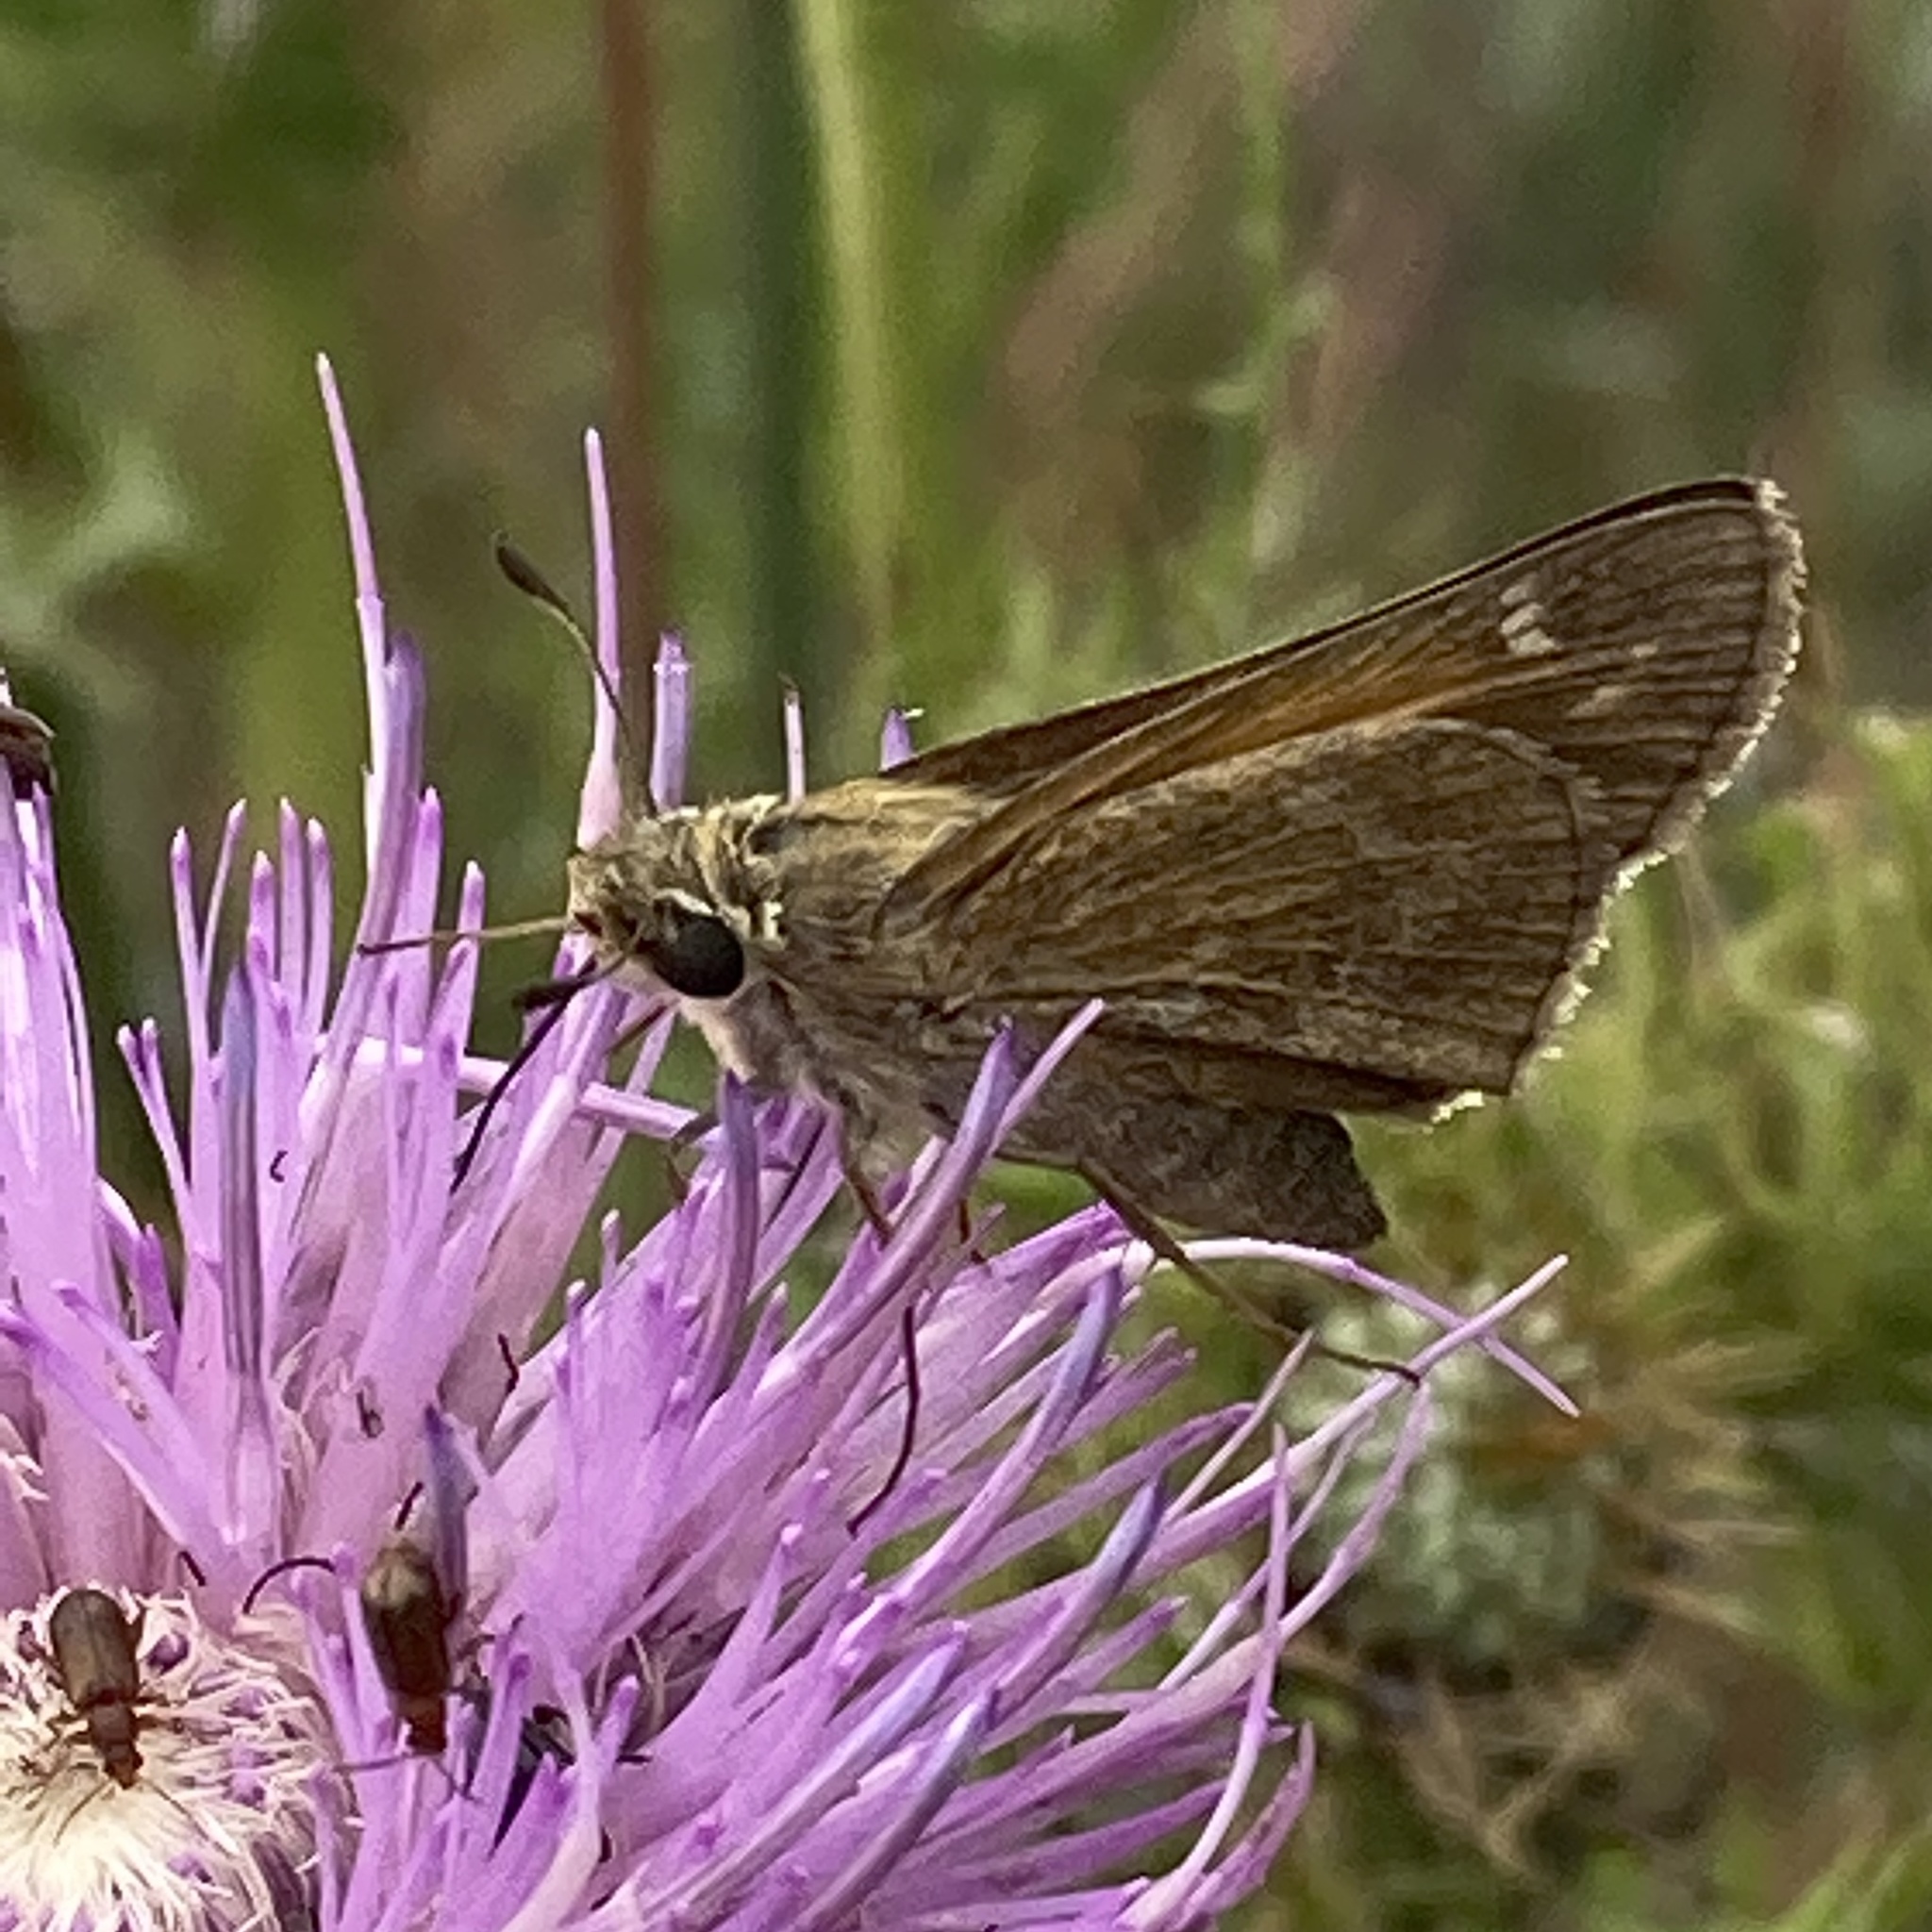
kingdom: Animalia
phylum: Arthropoda
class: Insecta
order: Lepidoptera
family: Hesperiidae
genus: Atalopedes
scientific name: Atalopedes
